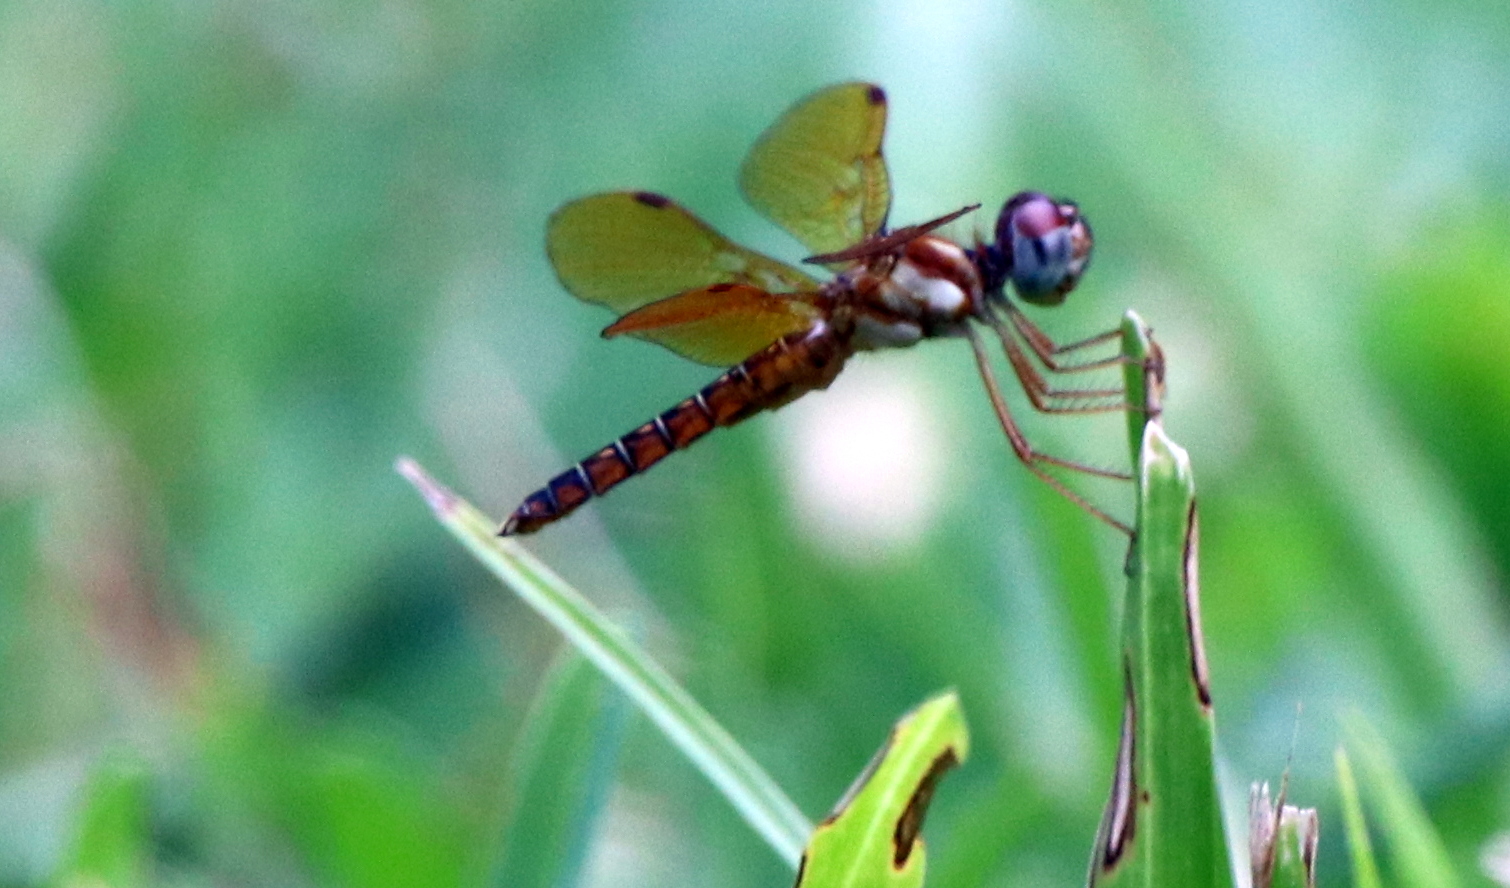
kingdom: Animalia
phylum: Arthropoda
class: Insecta
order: Odonata
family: Libellulidae
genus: Perithemis
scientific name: Perithemis tenera
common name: Eastern amberwing
